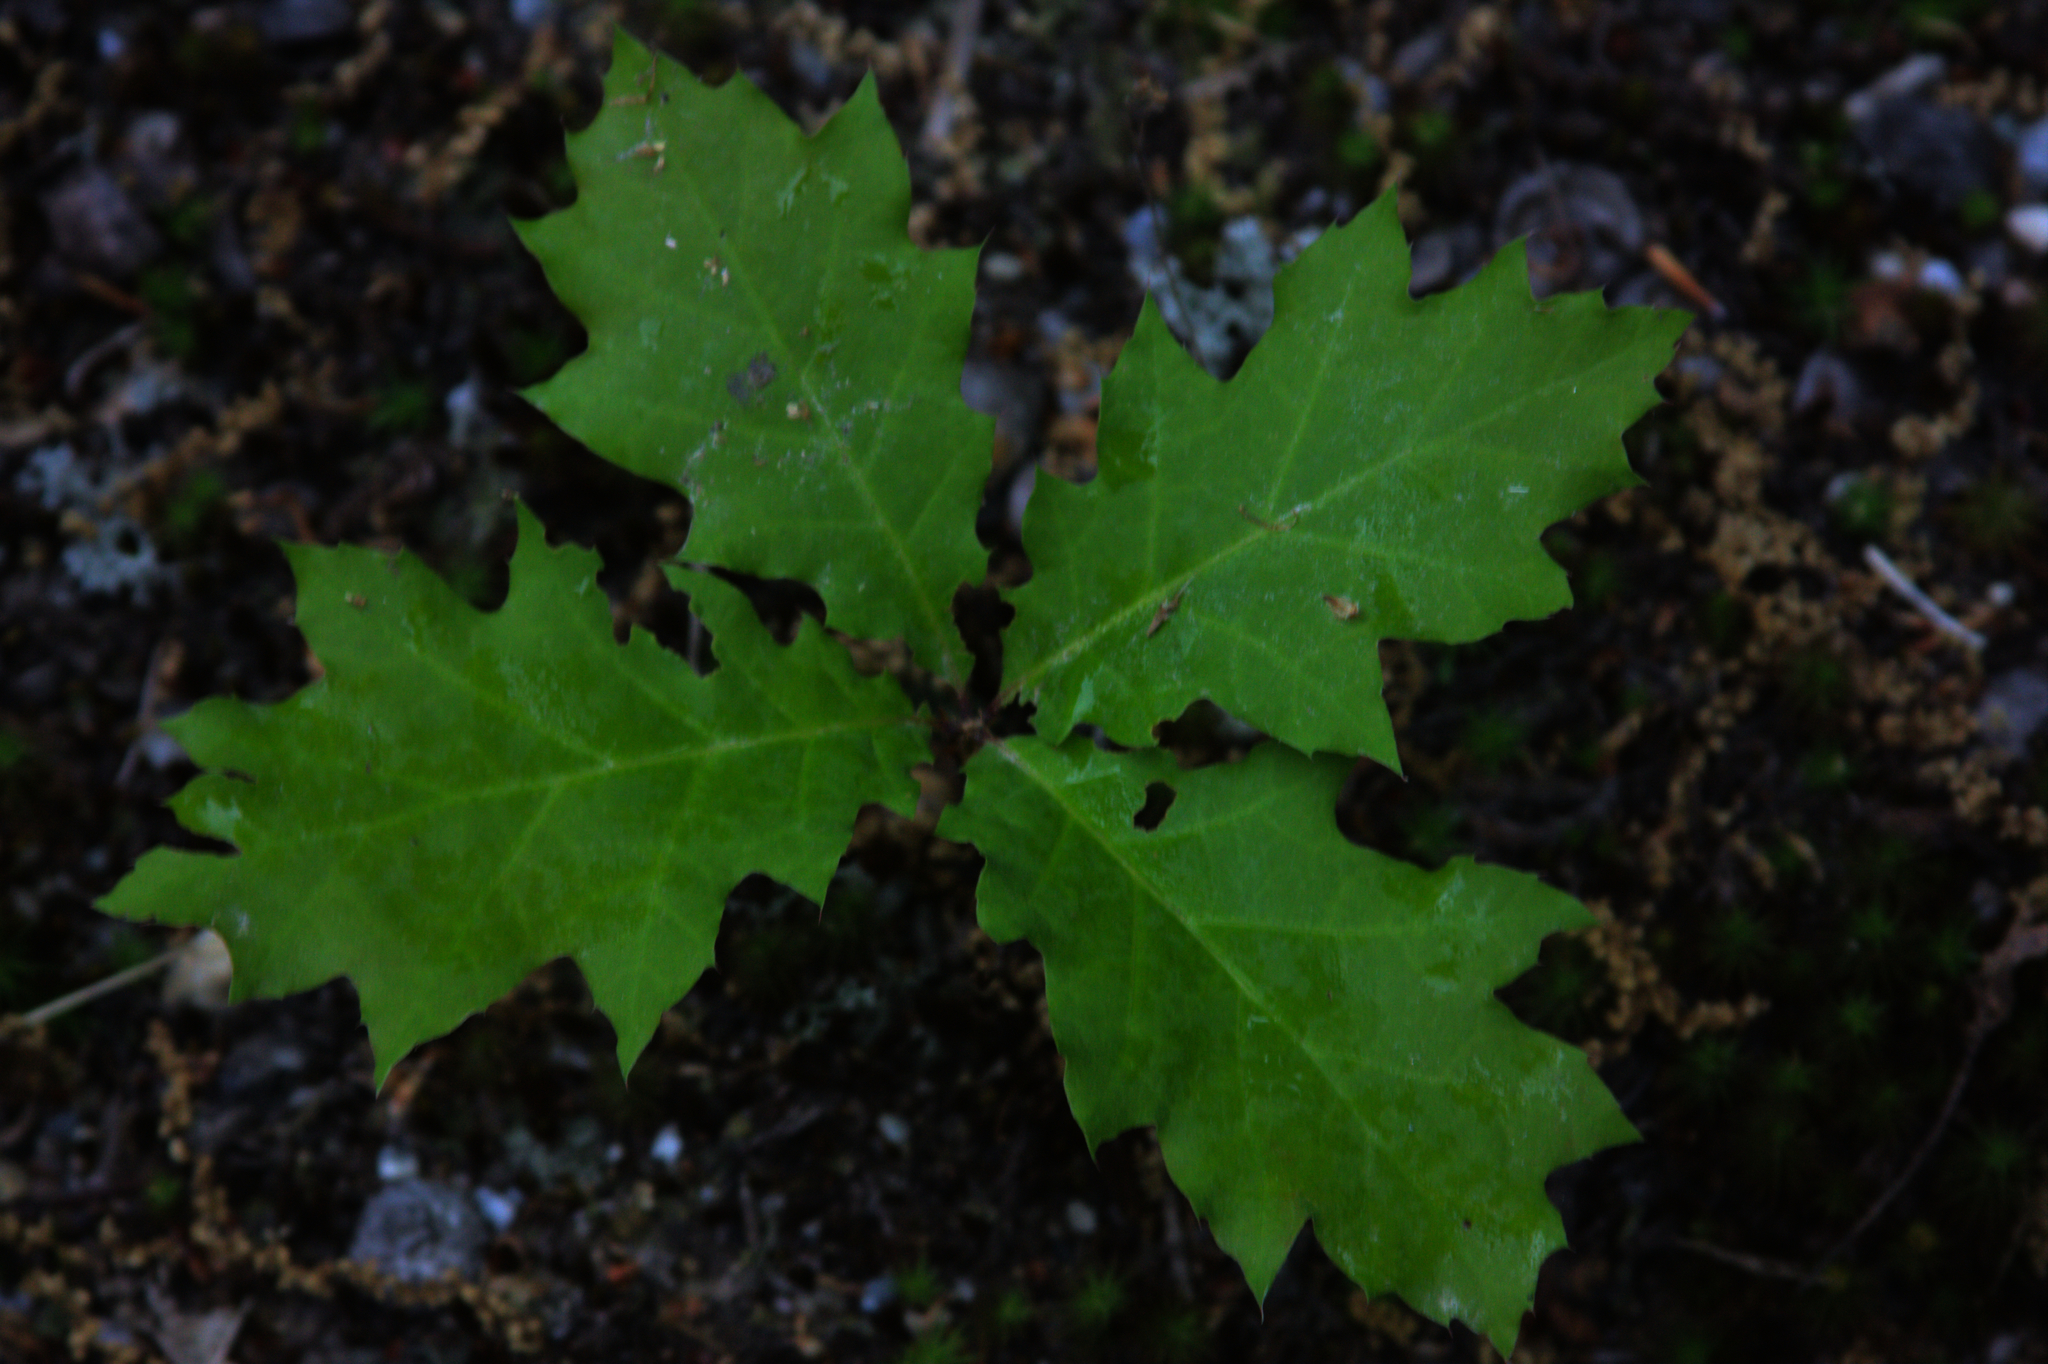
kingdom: Plantae
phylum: Tracheophyta
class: Magnoliopsida
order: Fagales
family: Fagaceae
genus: Quercus
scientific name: Quercus rubra
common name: Red oak
